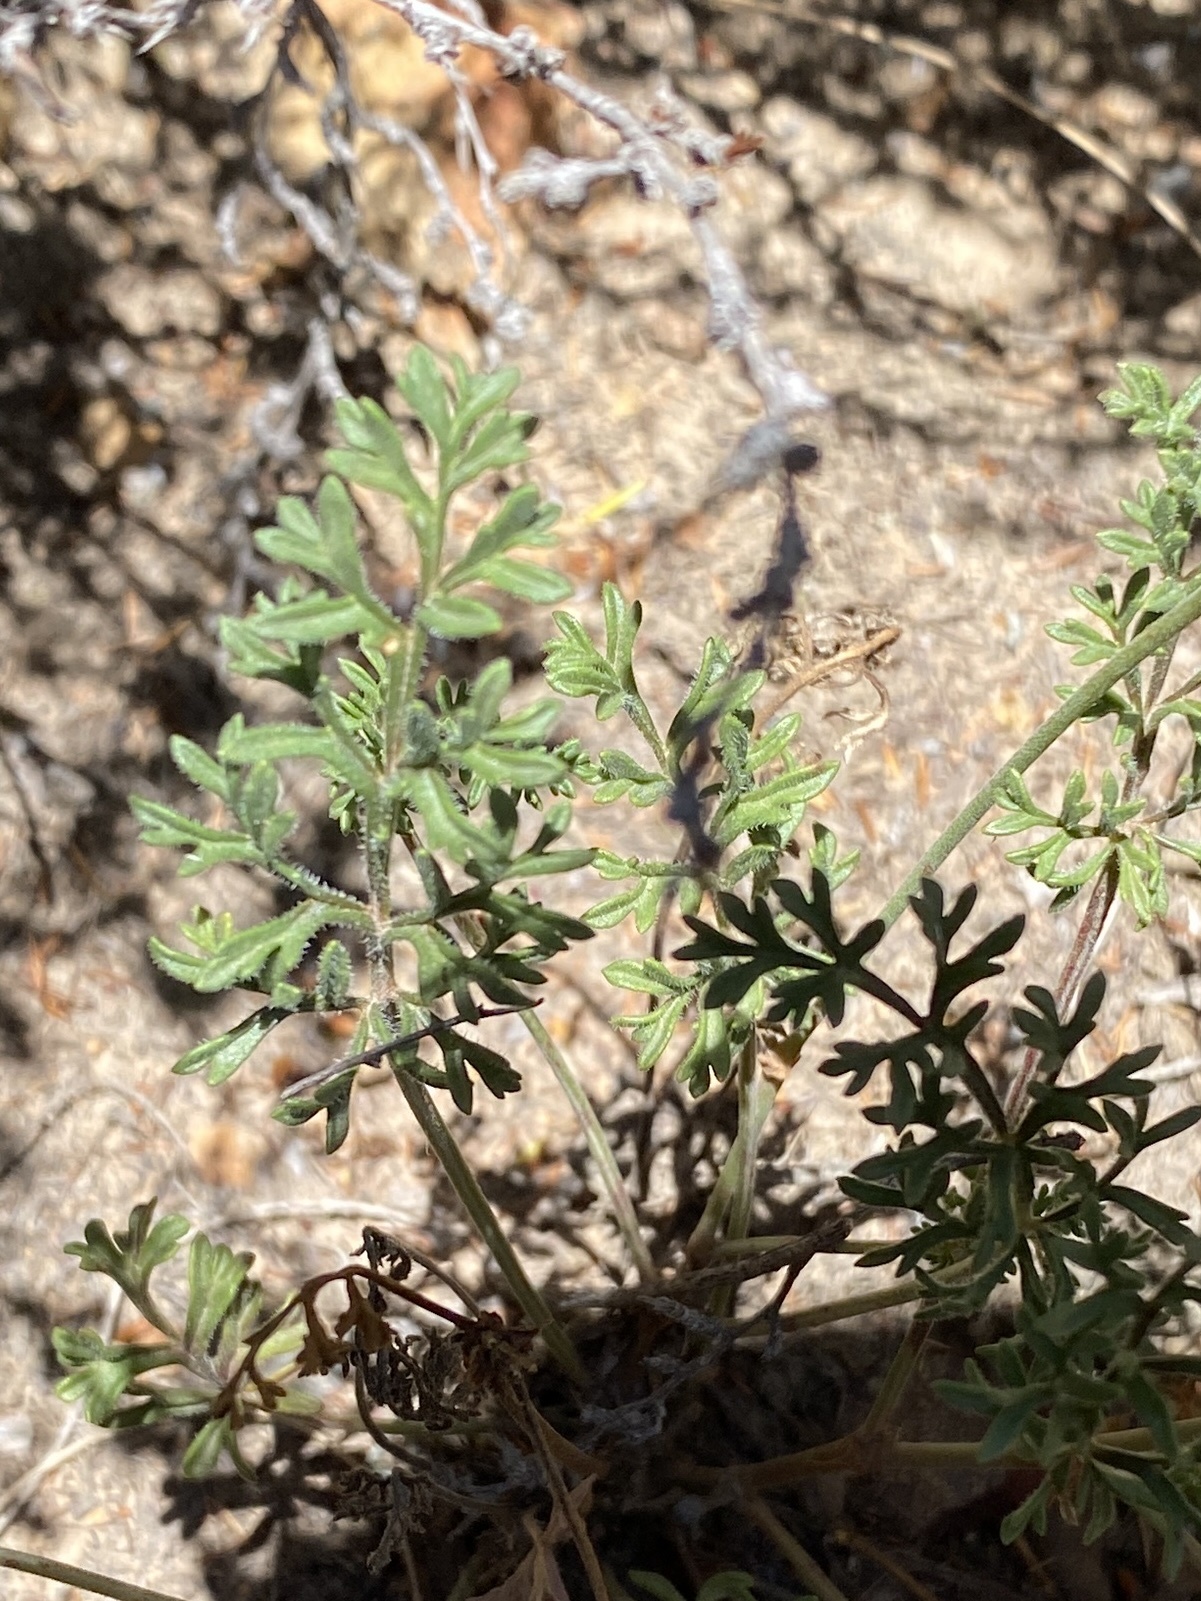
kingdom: Plantae
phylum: Tracheophyta
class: Magnoliopsida
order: Geraniales
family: Geraniaceae
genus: Pelargonium
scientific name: Pelargonium caucalifolium
